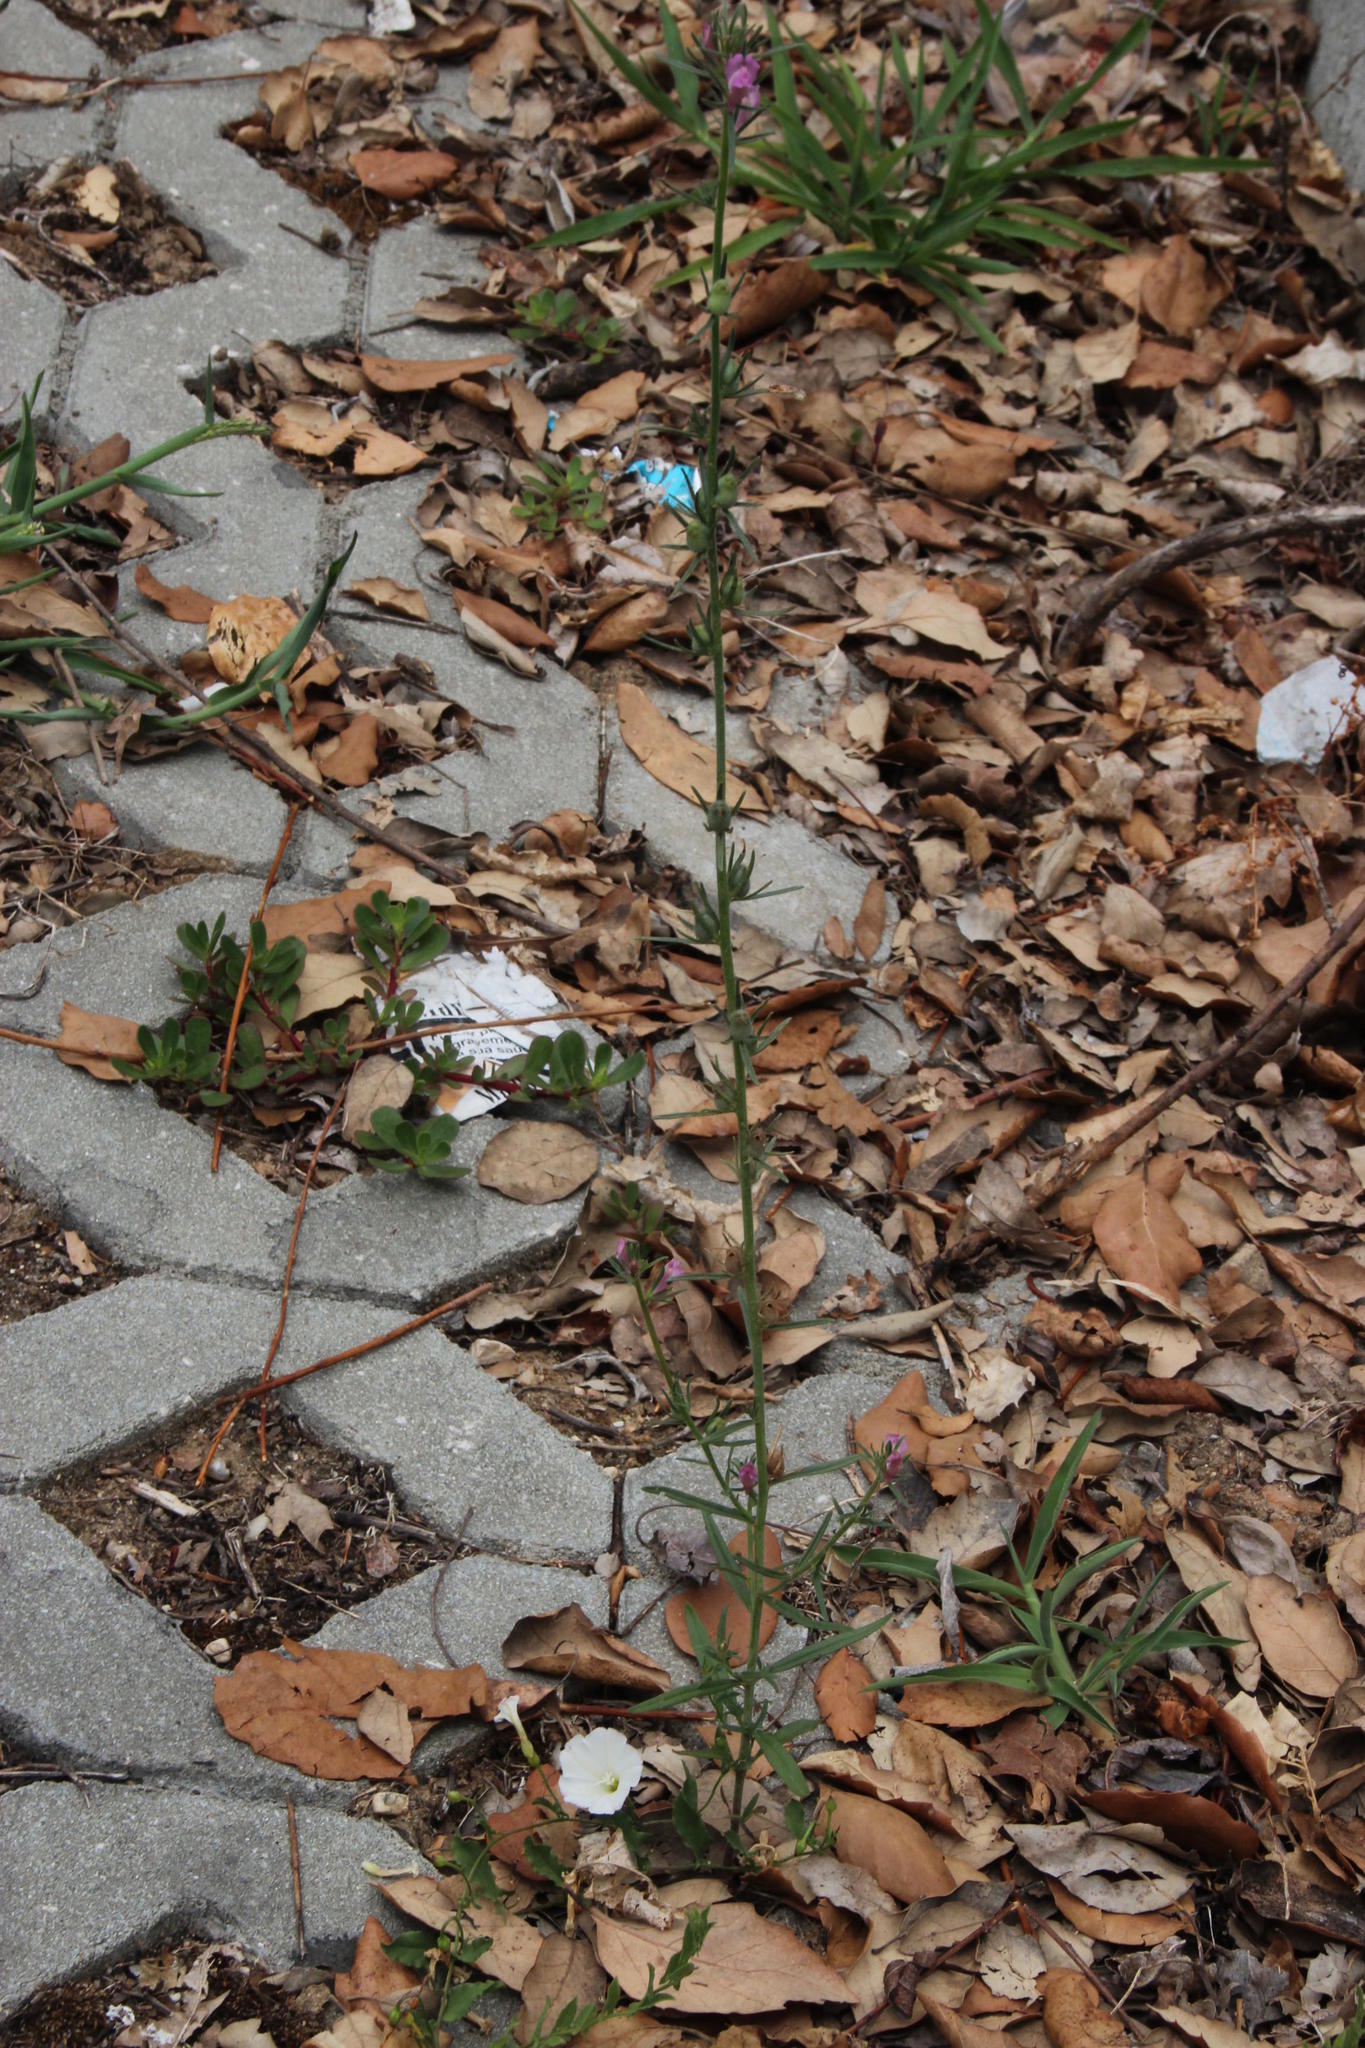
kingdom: Plantae
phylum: Tracheophyta
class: Magnoliopsida
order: Lamiales
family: Plantaginaceae
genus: Misopates
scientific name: Misopates orontium
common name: Weasel's-snout
